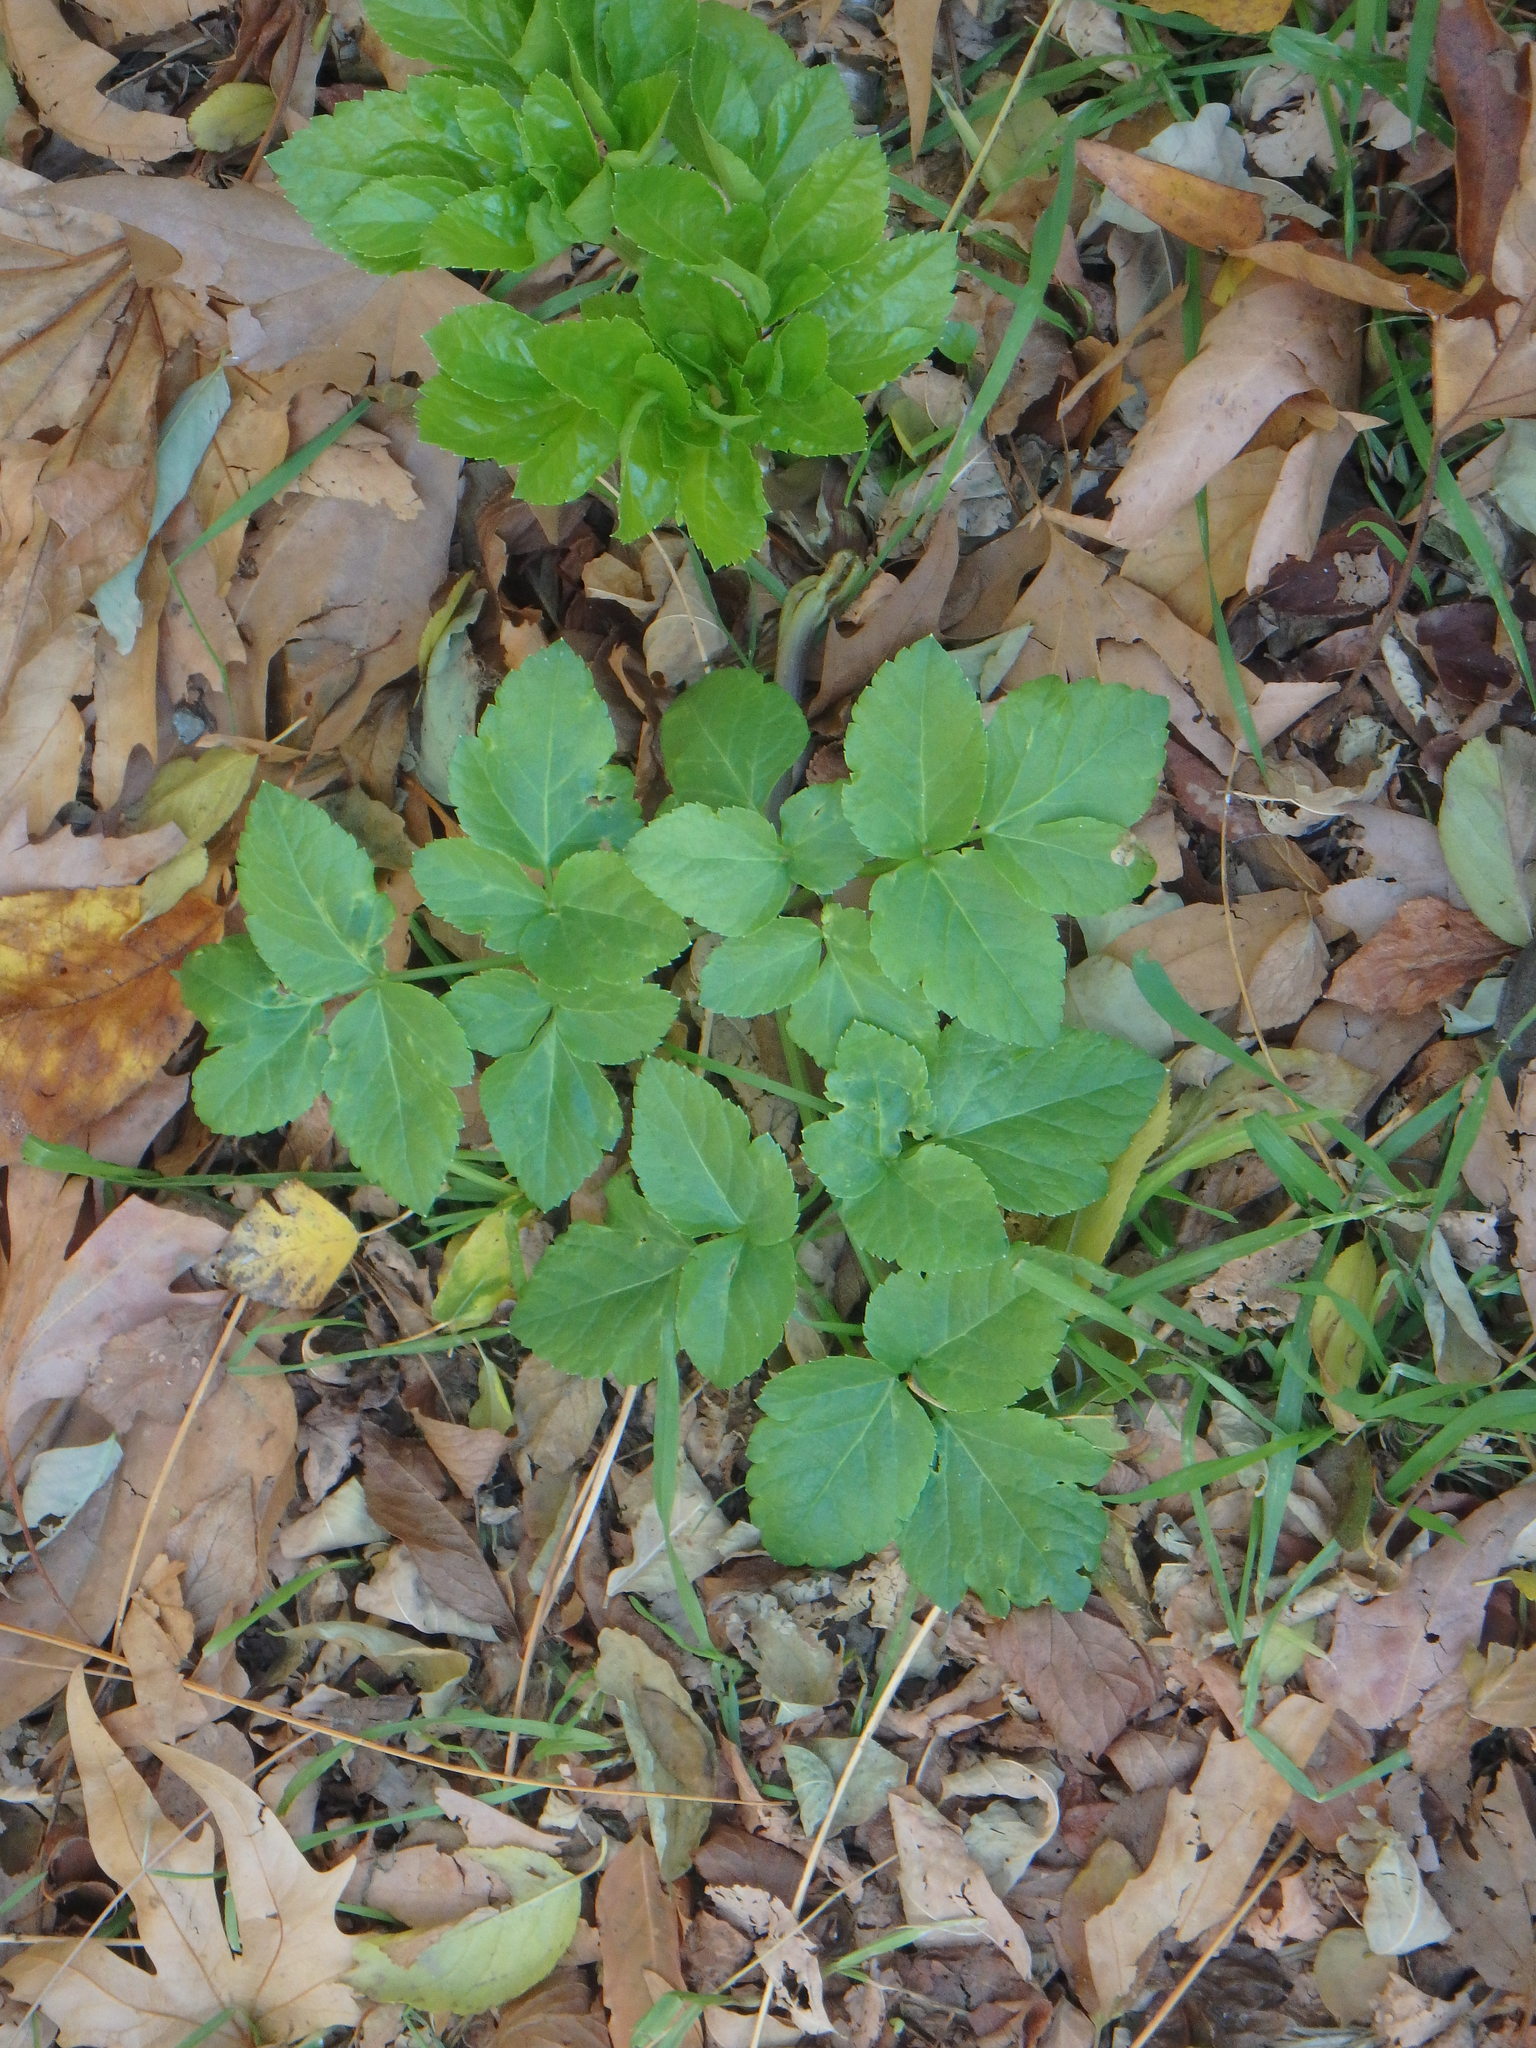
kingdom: Plantae
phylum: Tracheophyta
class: Magnoliopsida
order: Apiales
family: Apiaceae
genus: Smyrnium
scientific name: Smyrnium olusatrum
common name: Alexanders
